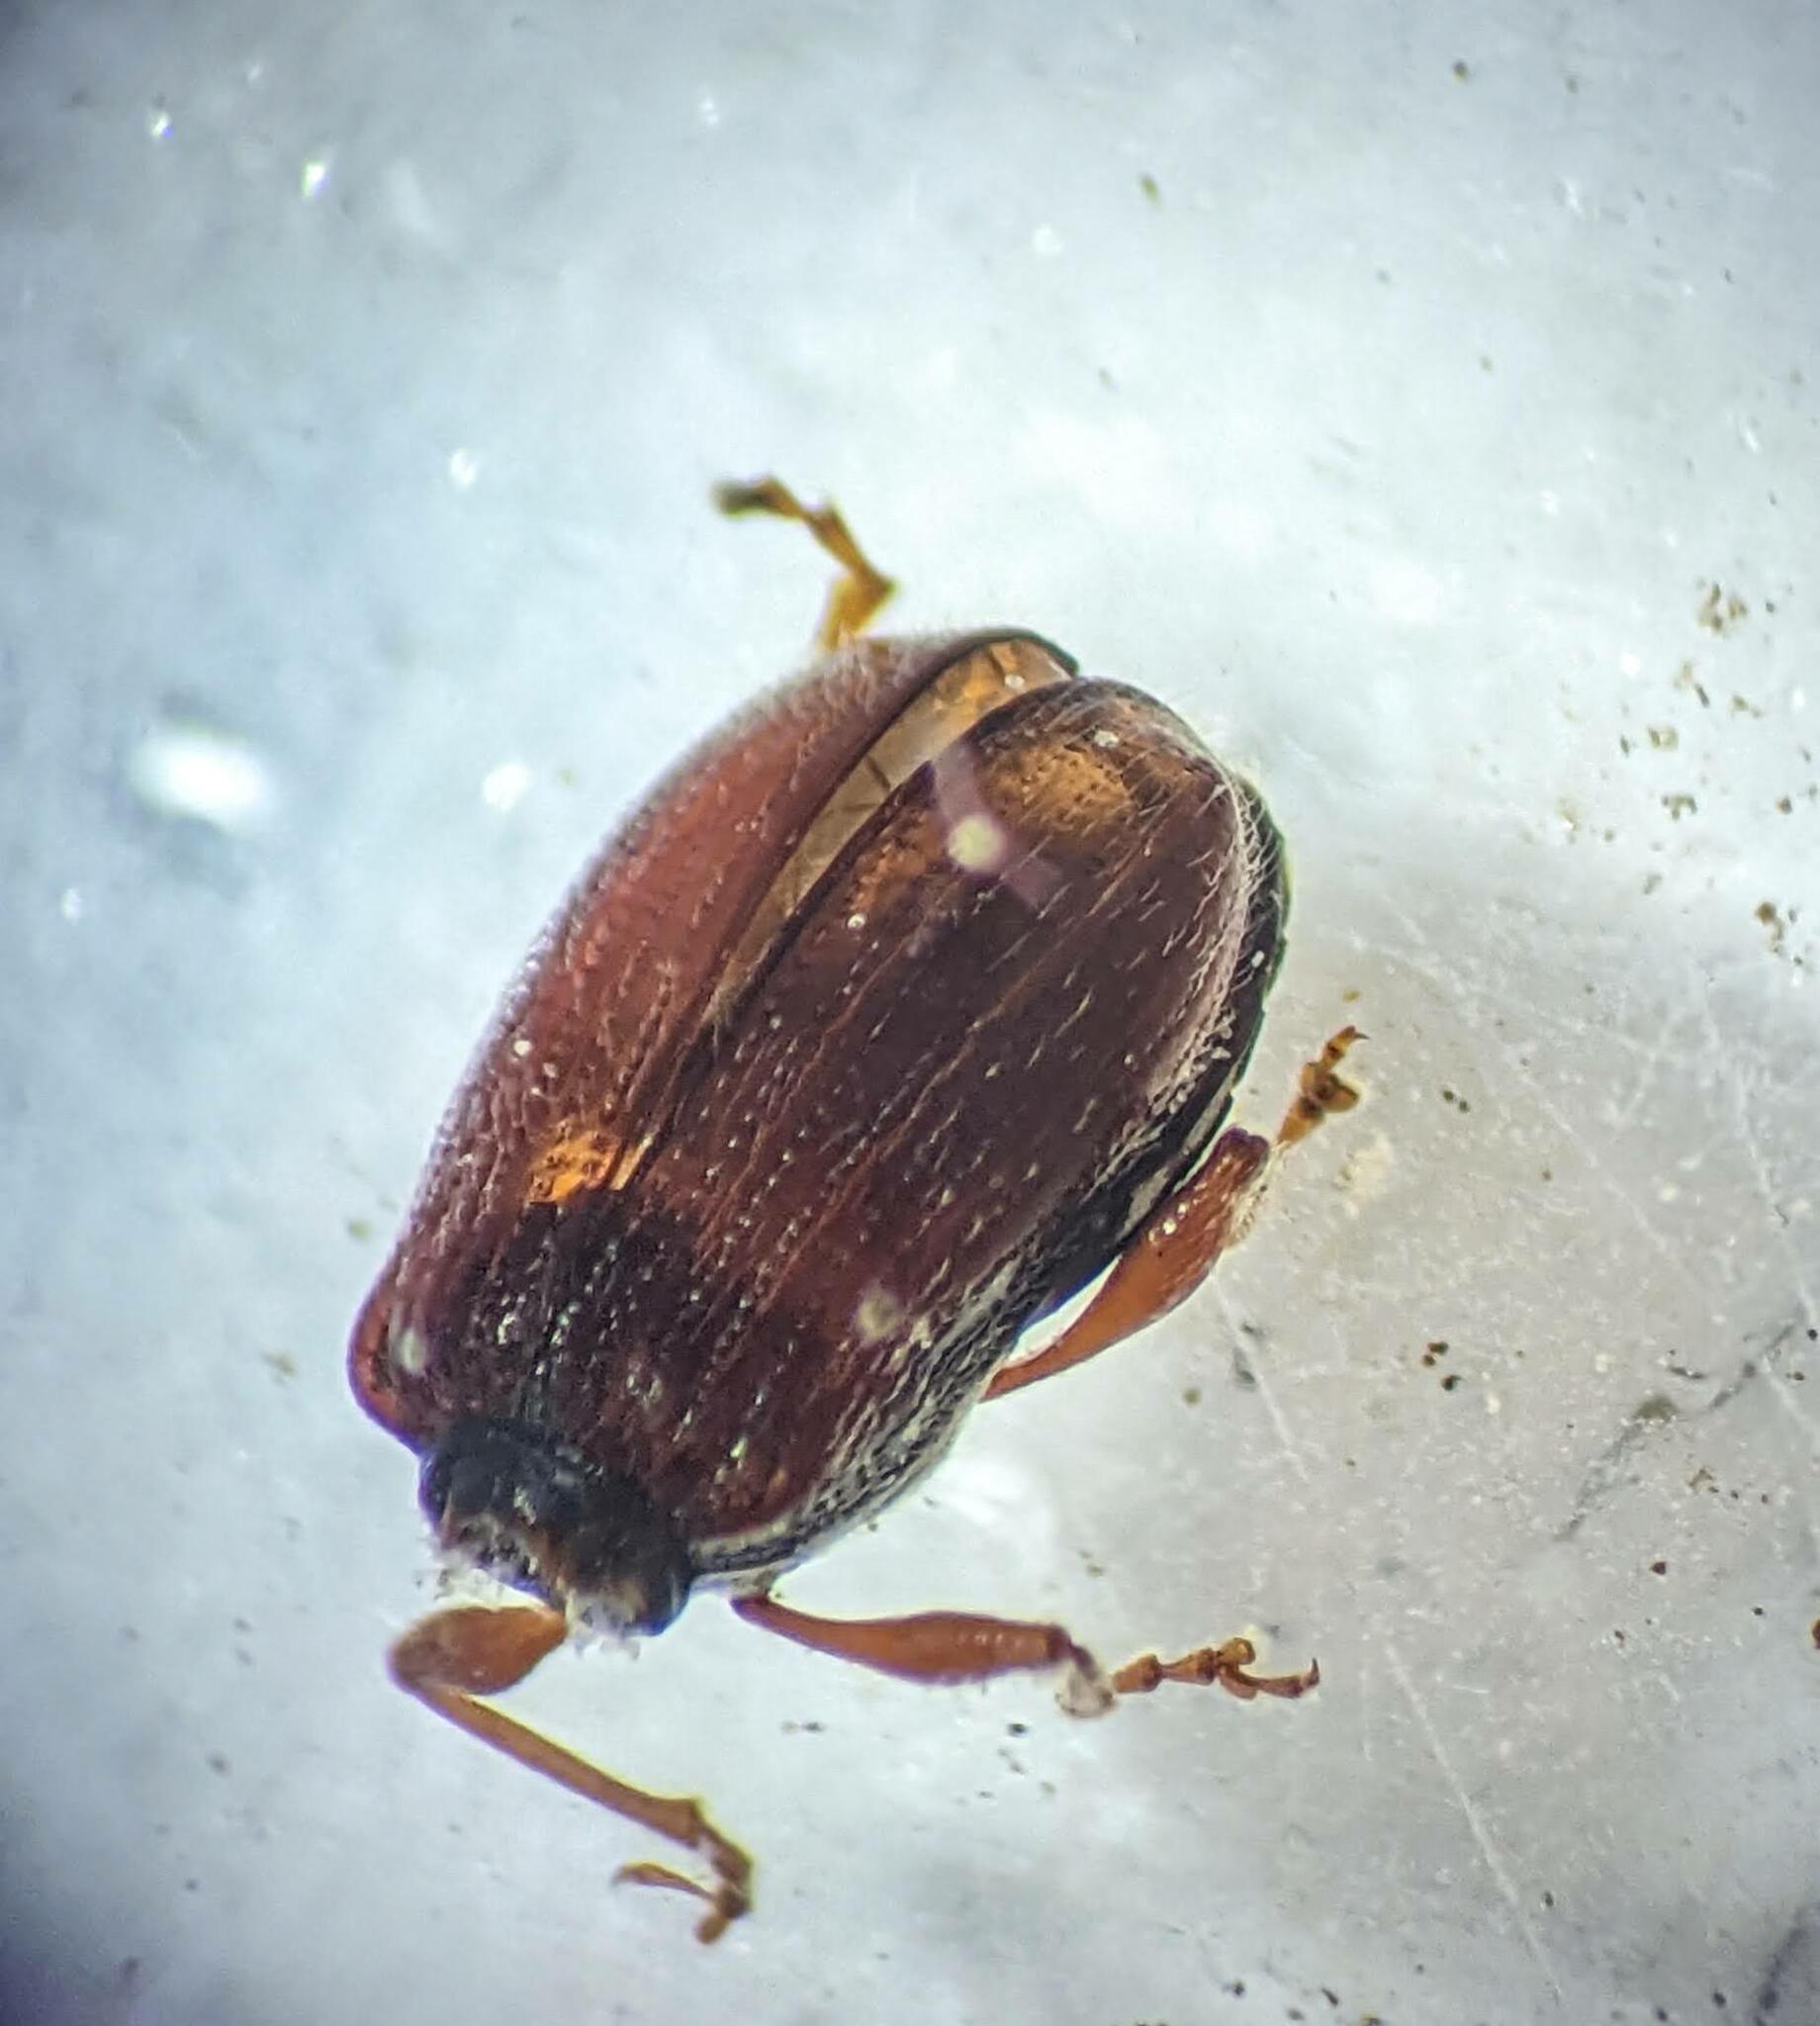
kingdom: Animalia
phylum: Arthropoda
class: Insecta
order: Coleoptera
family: Curculionidae
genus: Phyllobius
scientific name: Phyllobius oblongus
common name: Brown leaf weevil
